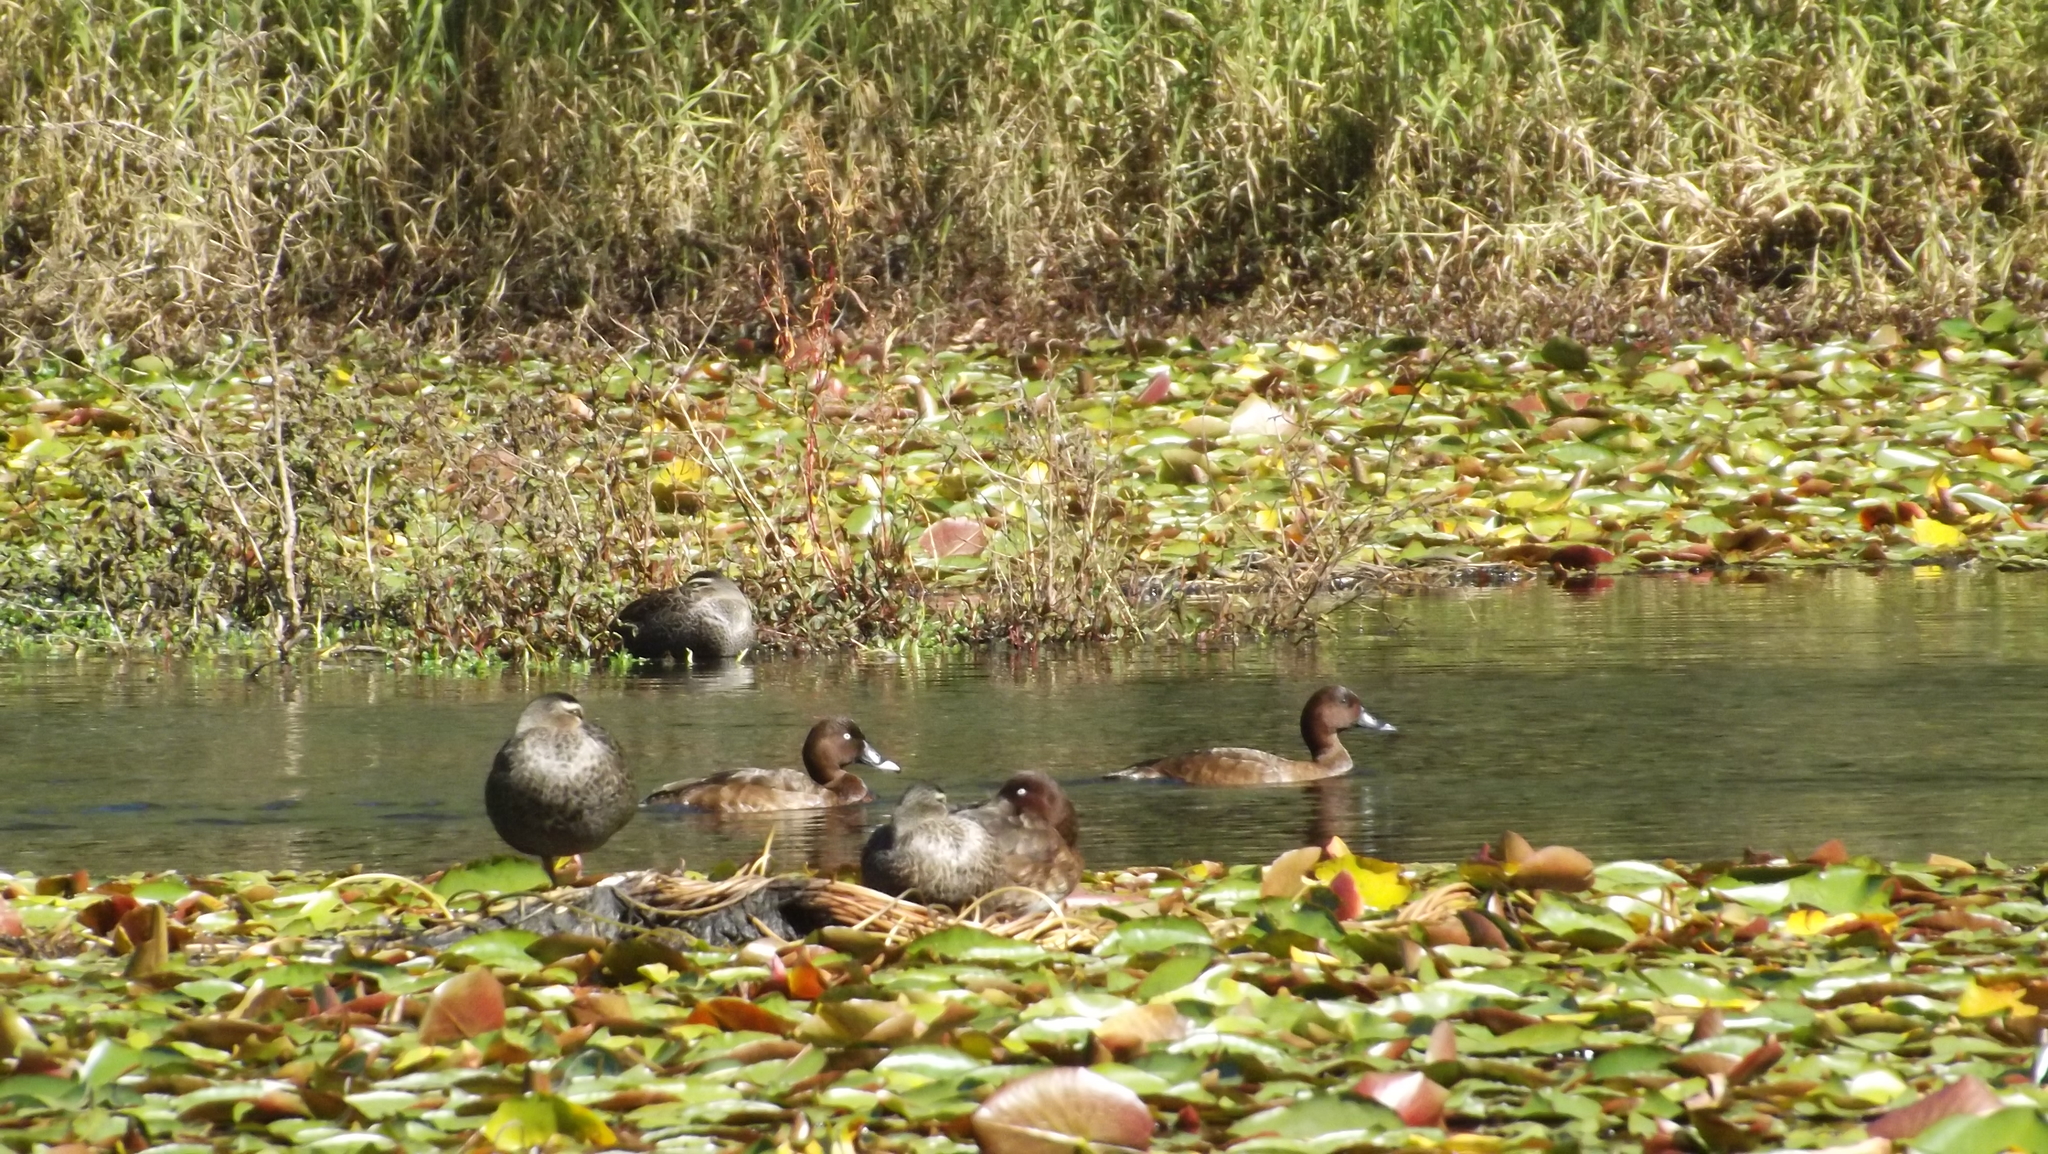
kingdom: Animalia
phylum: Chordata
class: Aves
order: Anseriformes
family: Anatidae
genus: Anas
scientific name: Anas superciliosa
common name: Pacific black duck
